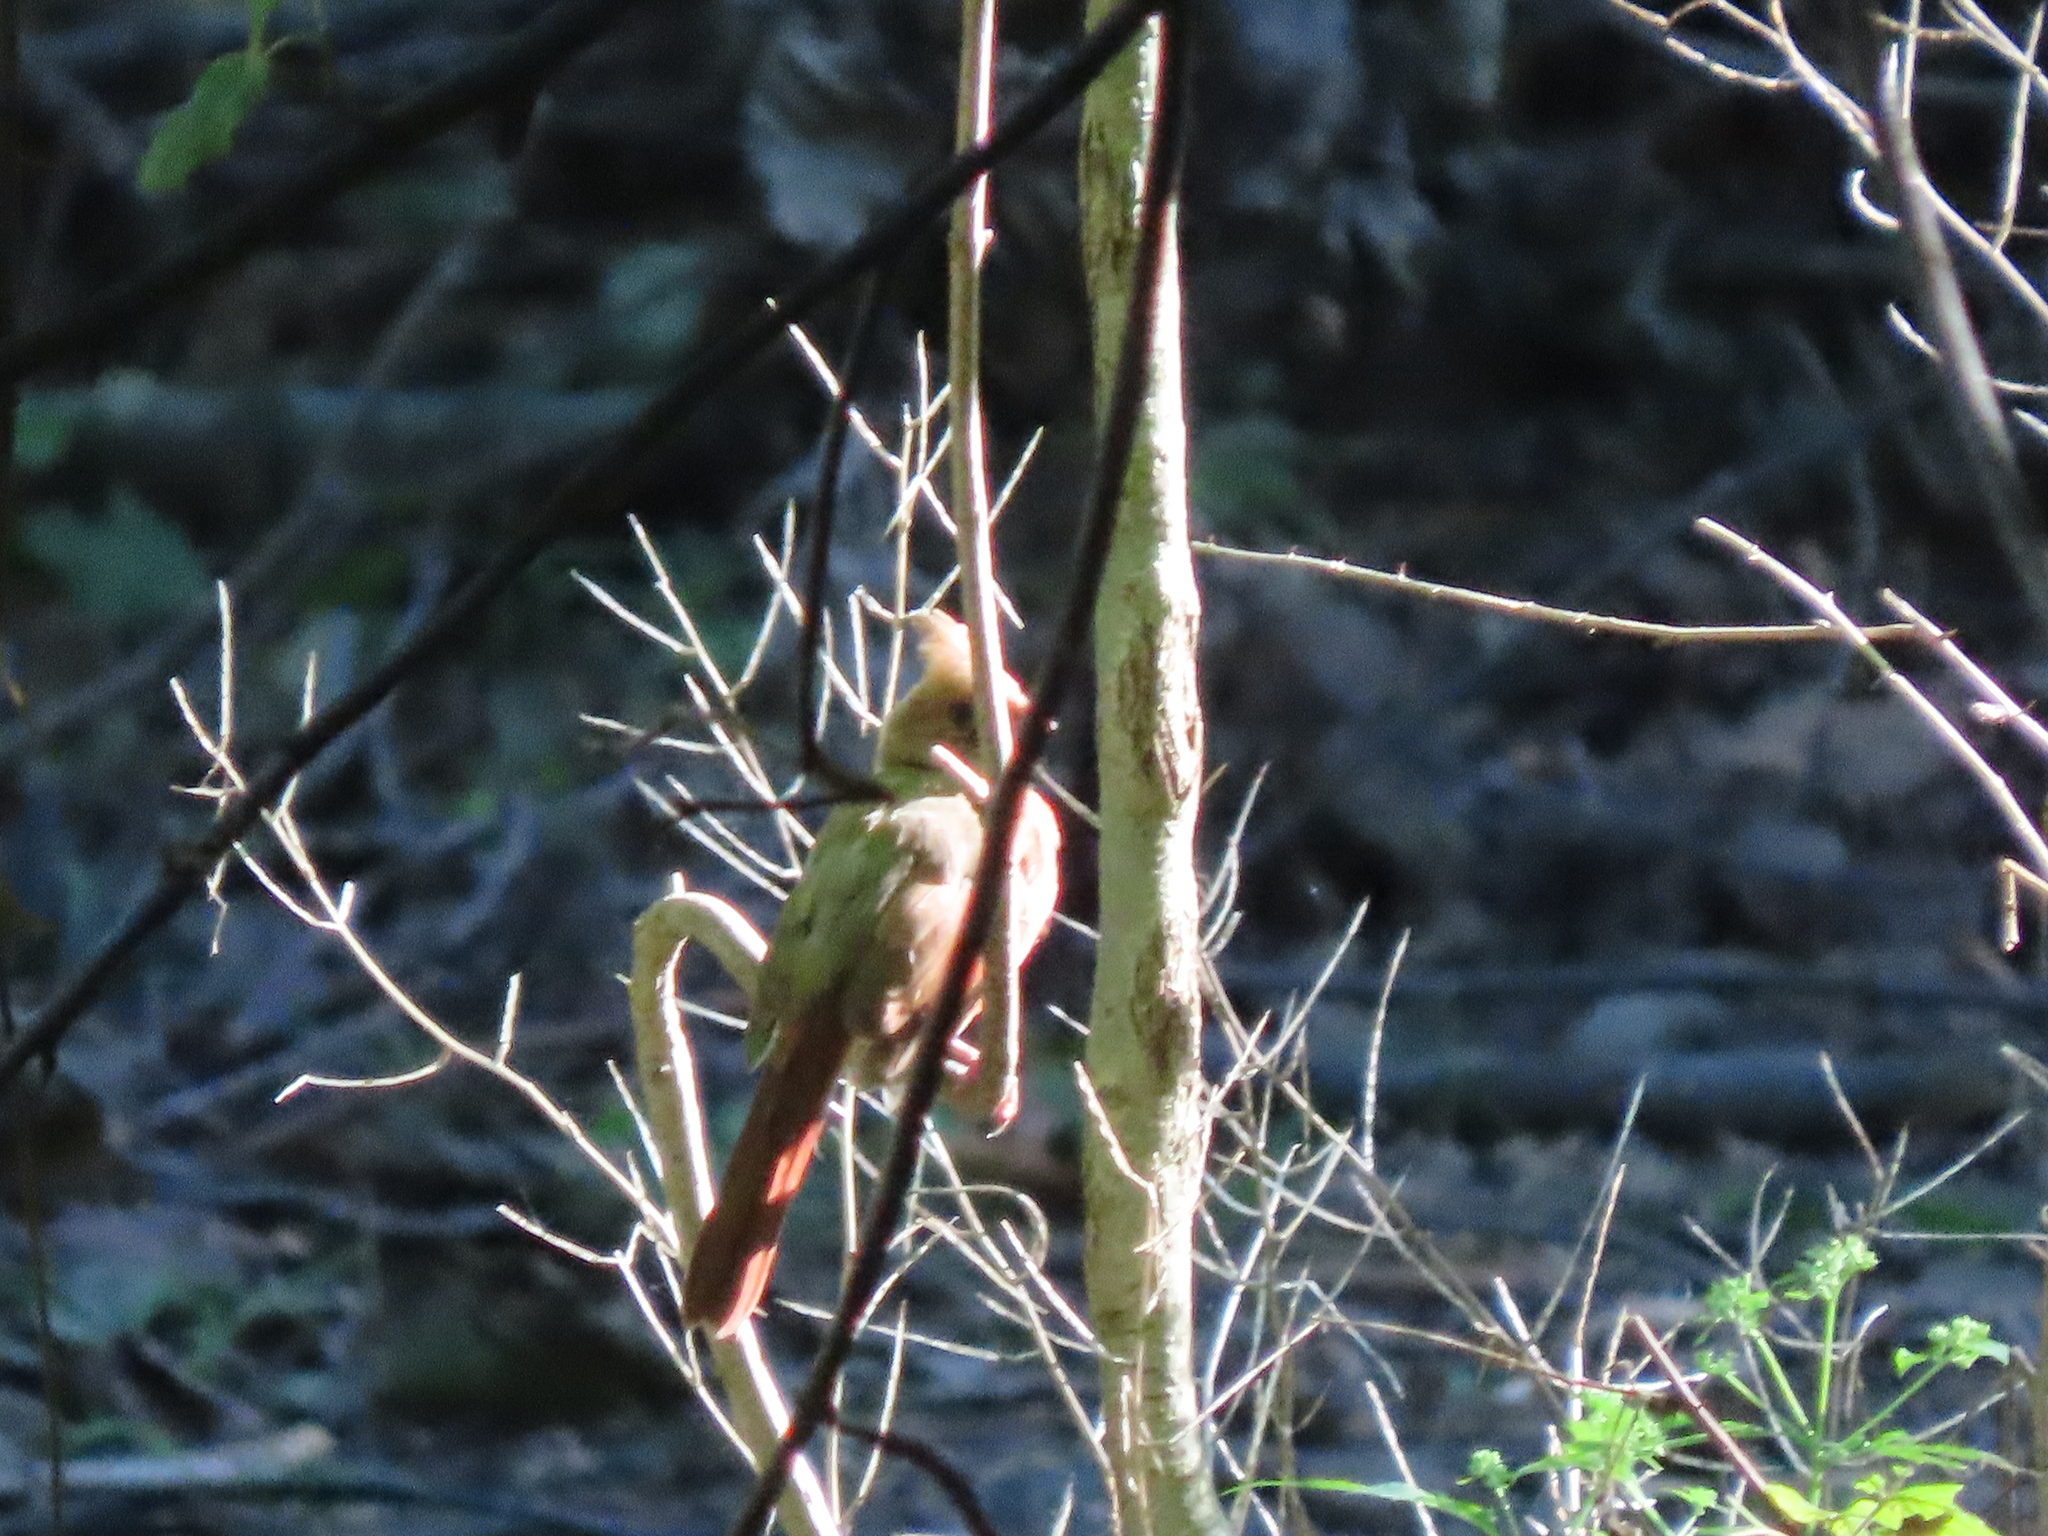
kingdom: Animalia
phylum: Chordata
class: Aves
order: Passeriformes
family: Cardinalidae
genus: Cardinalis
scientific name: Cardinalis cardinalis
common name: Northern cardinal
